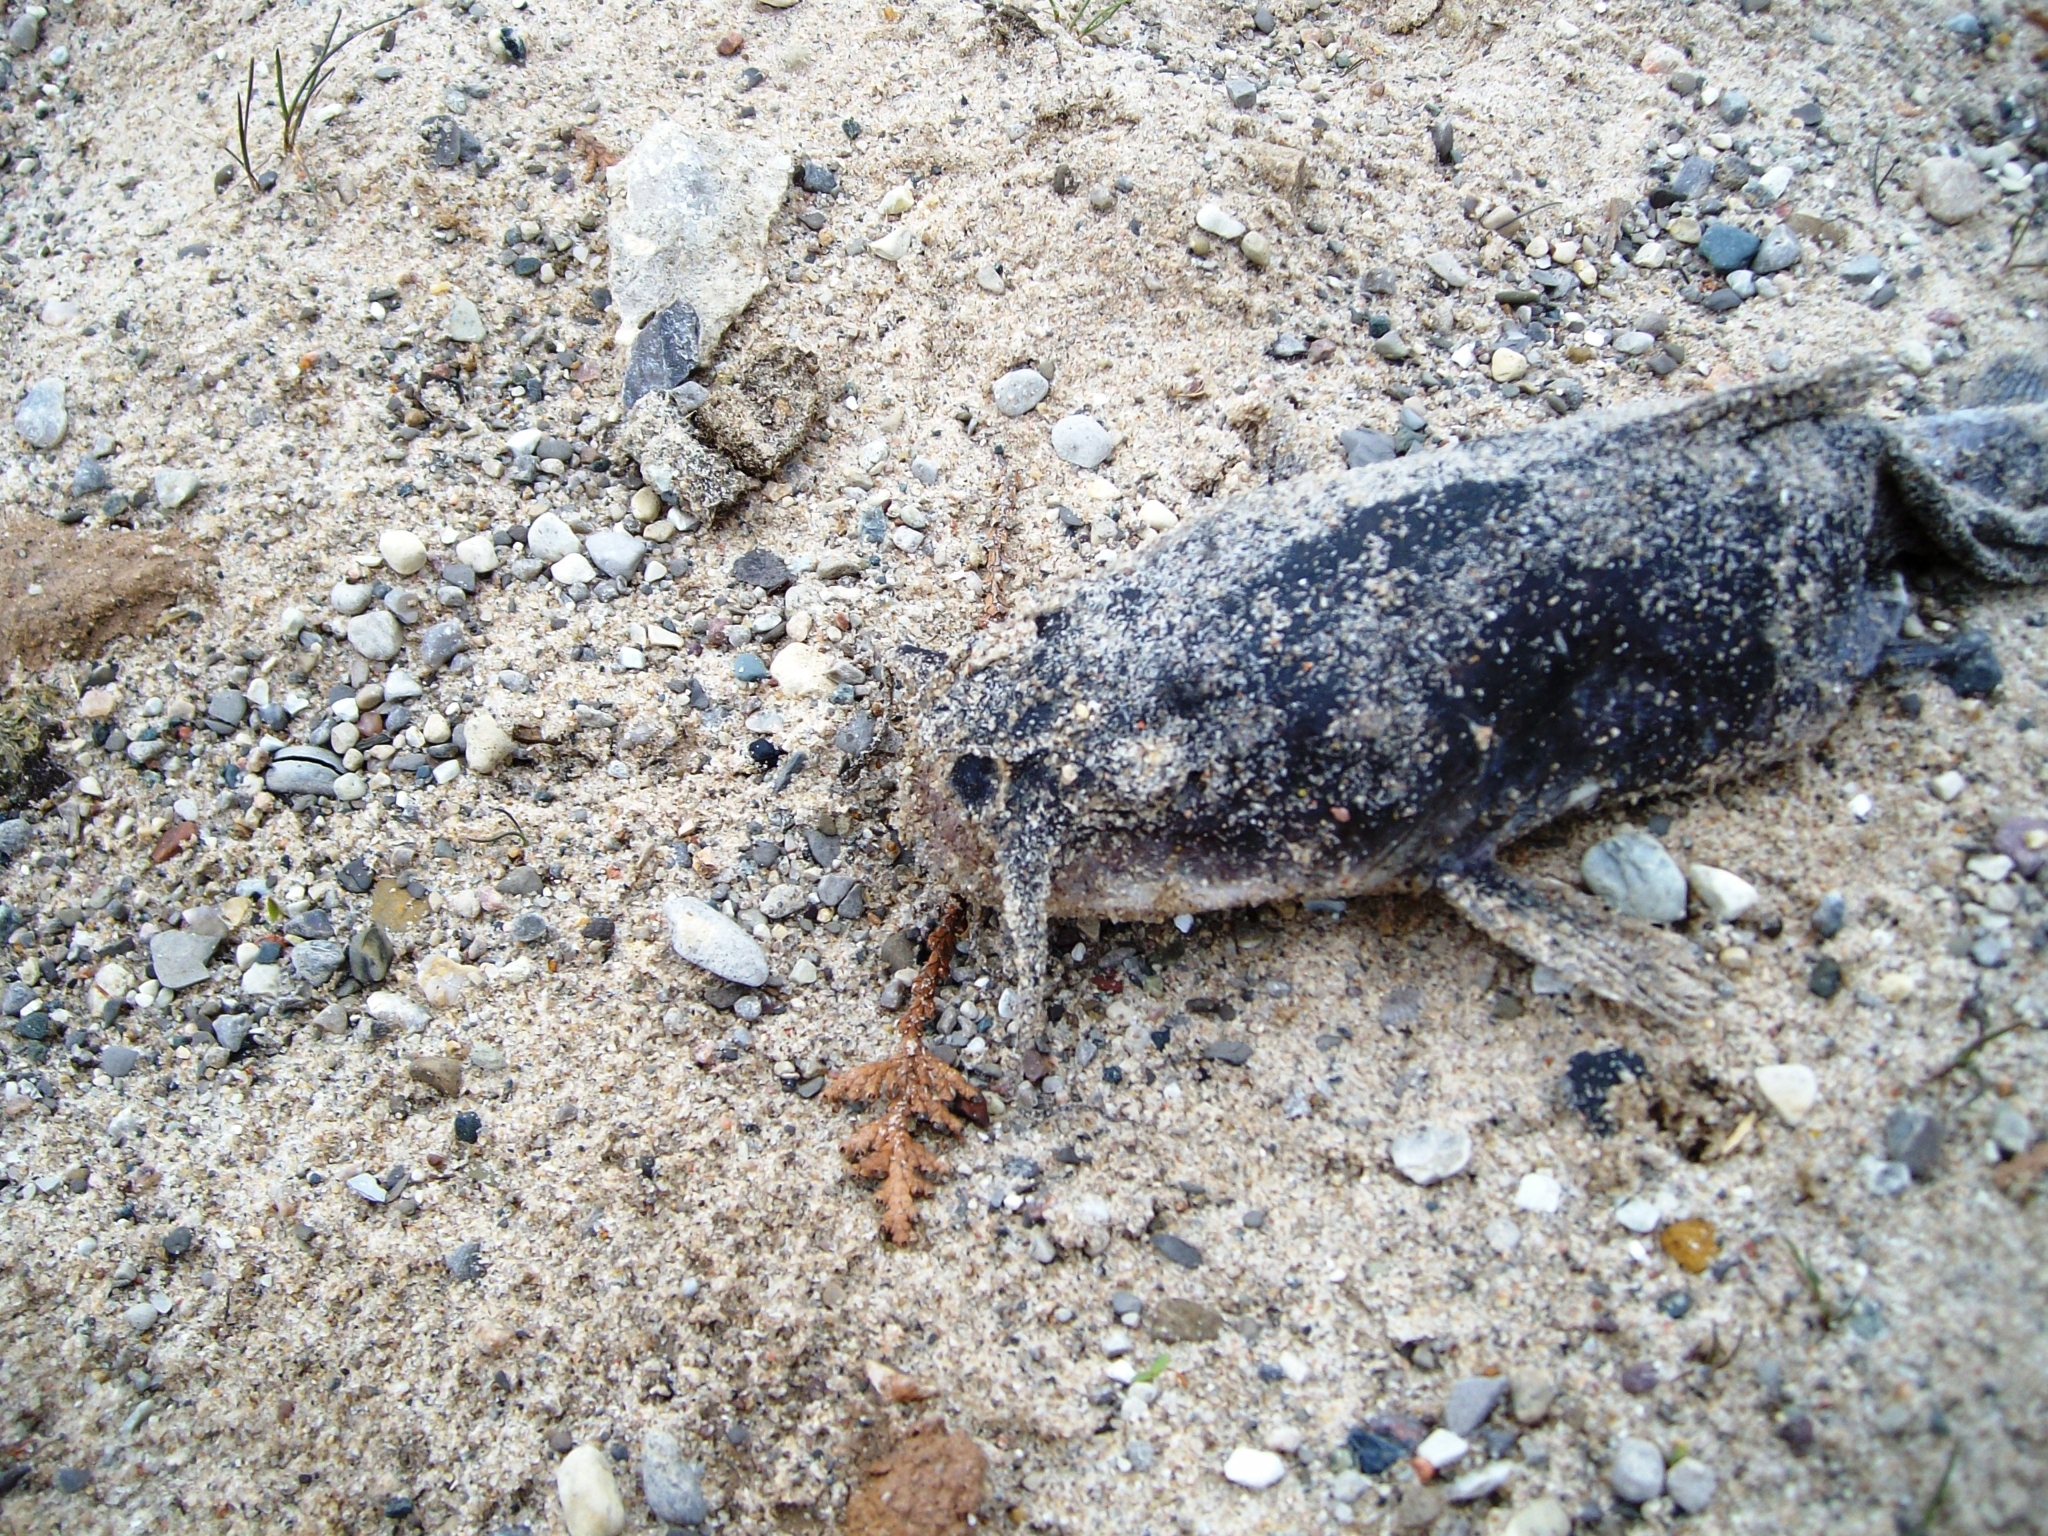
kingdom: Animalia
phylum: Chordata
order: Siluriformes
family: Ictaluridae
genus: Ameiurus
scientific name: Ameiurus
